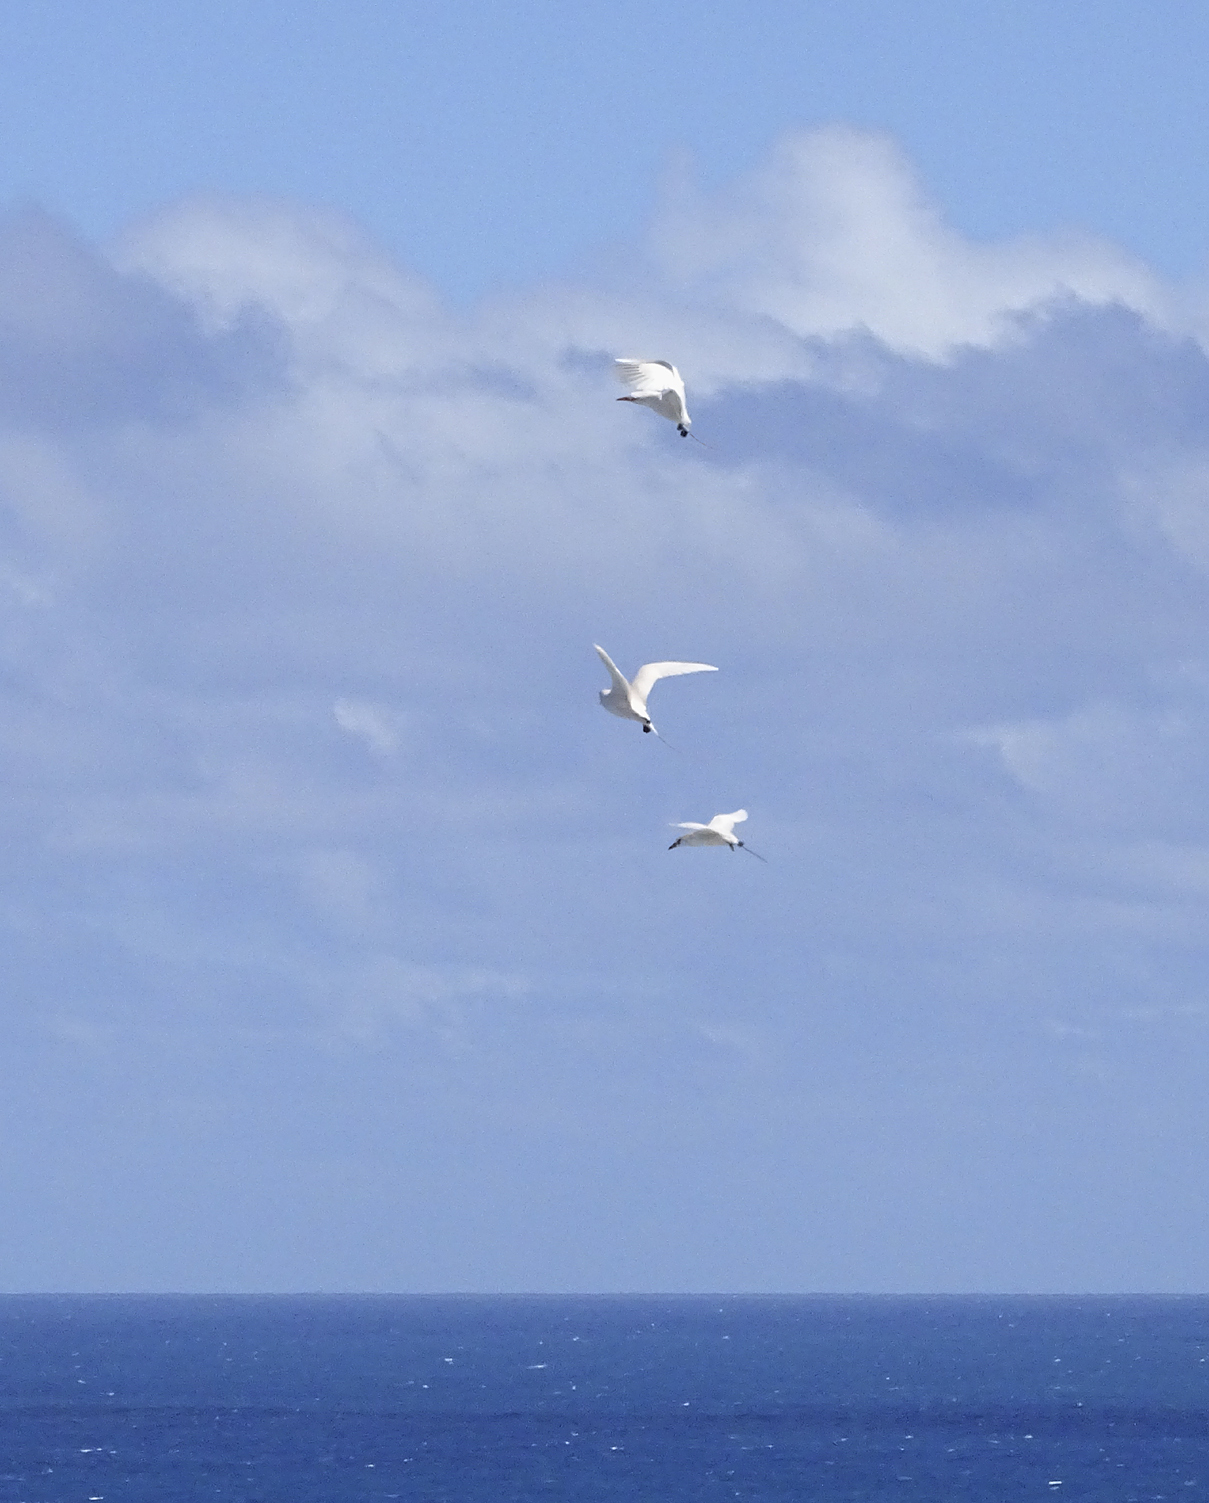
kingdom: Animalia
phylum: Chordata
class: Aves
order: Phaethontiformes
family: Phaethontidae
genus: Phaethon
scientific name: Phaethon rubricauda
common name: Red-tailed tropicbird
